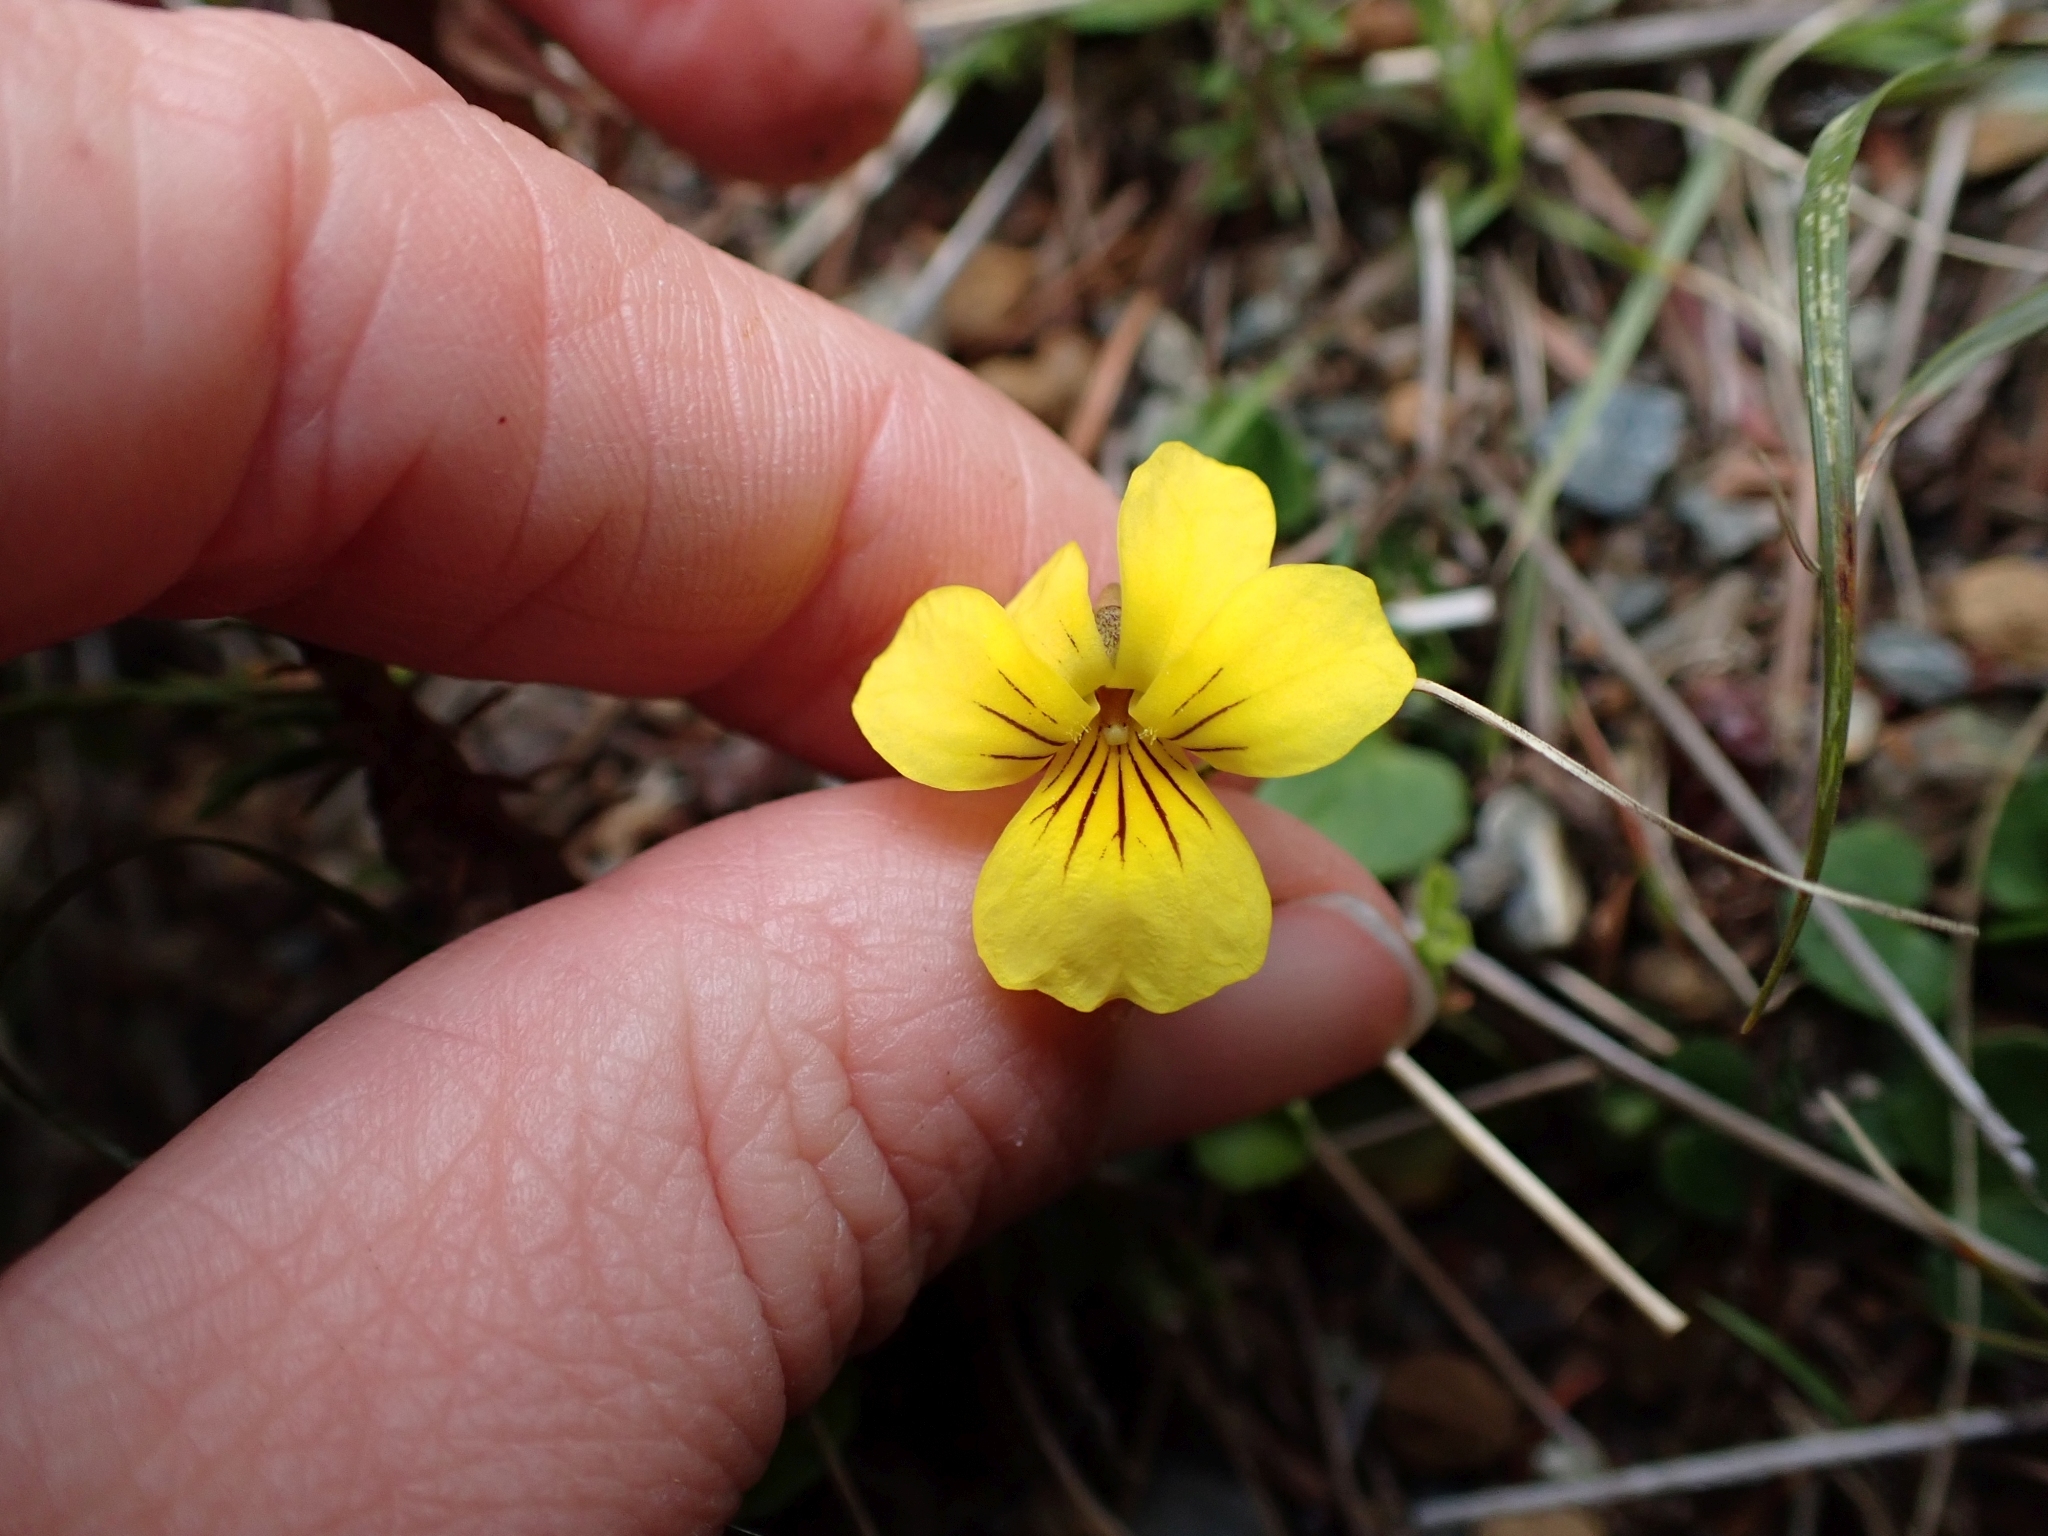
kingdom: Plantae
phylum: Tracheophyta
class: Magnoliopsida
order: Malpighiales
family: Violaceae
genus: Viola
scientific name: Viola sempervirens
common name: Evergreen violet
